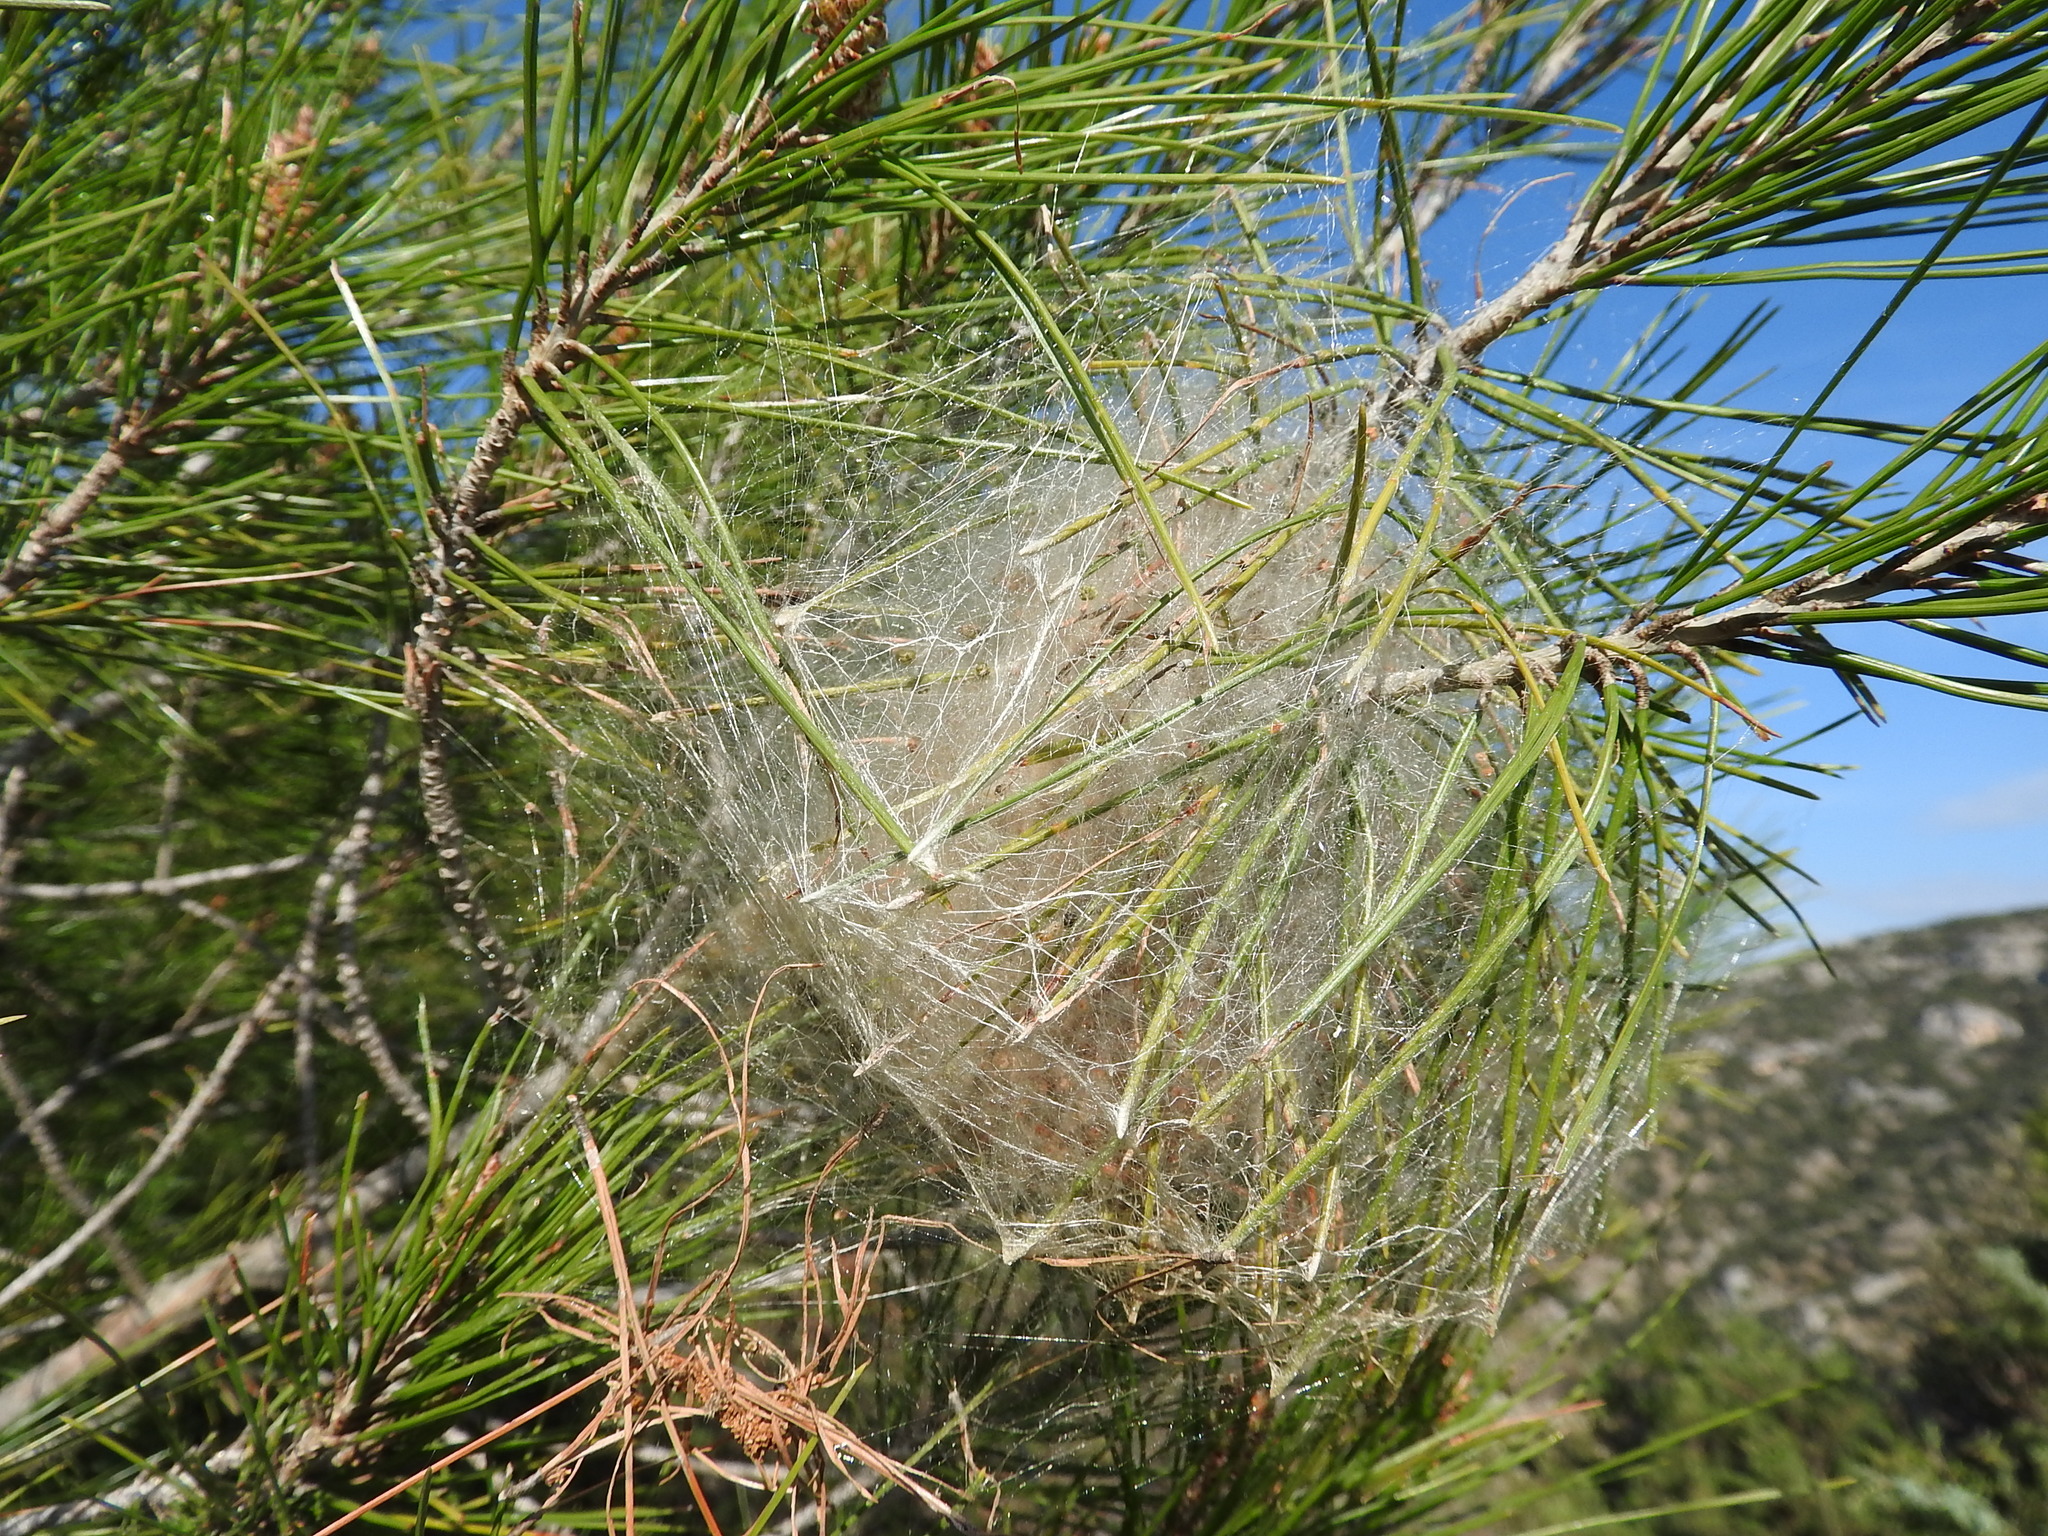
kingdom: Animalia
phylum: Arthropoda
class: Insecta
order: Lepidoptera
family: Notodontidae
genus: Thaumetopoea
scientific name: Thaumetopoea pityocampa
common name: Pine processionary
